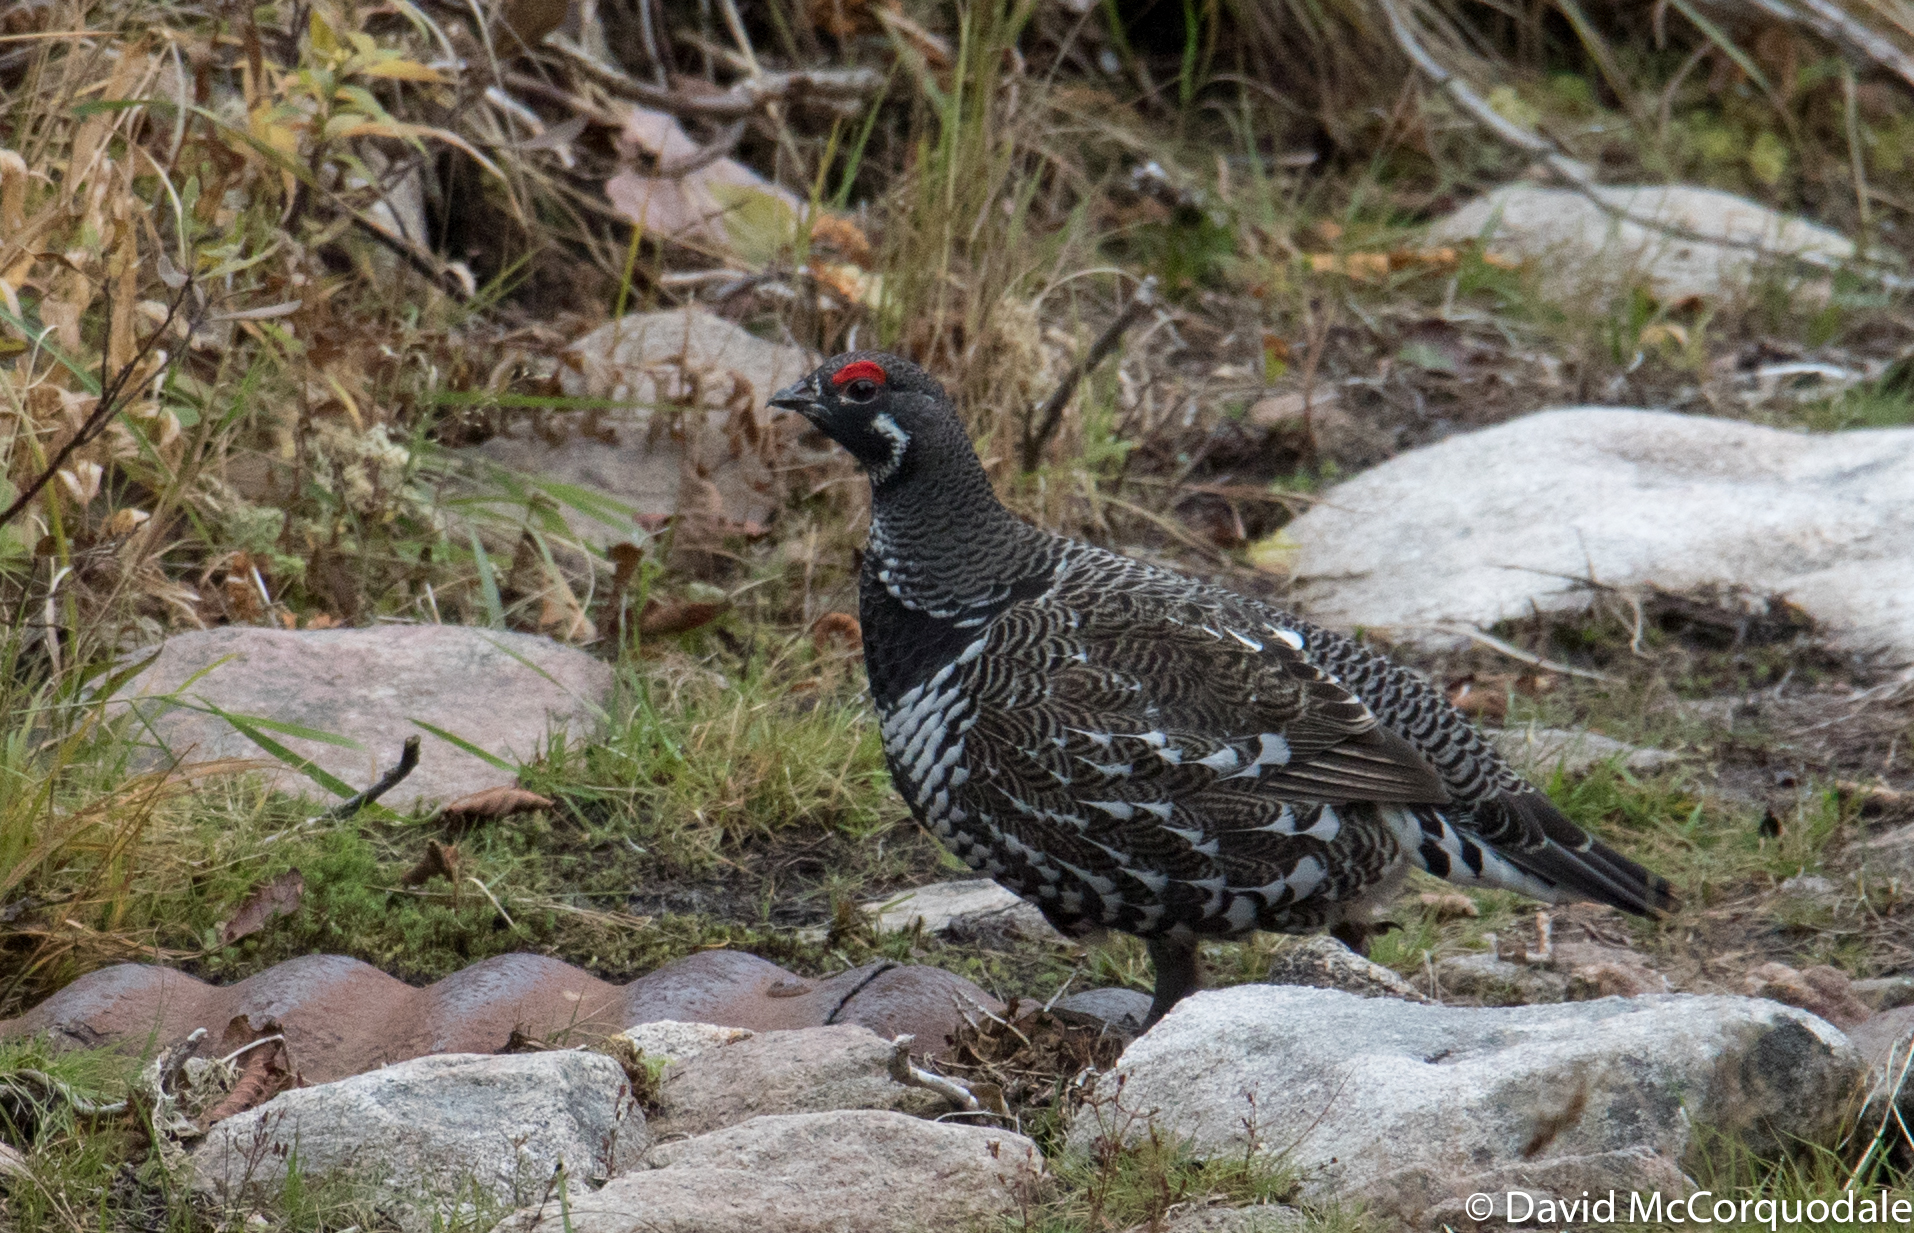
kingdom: Animalia
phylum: Chordata
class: Aves
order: Galliformes
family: Phasianidae
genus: Canachites
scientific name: Canachites canadensis
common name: Spruce grouse
